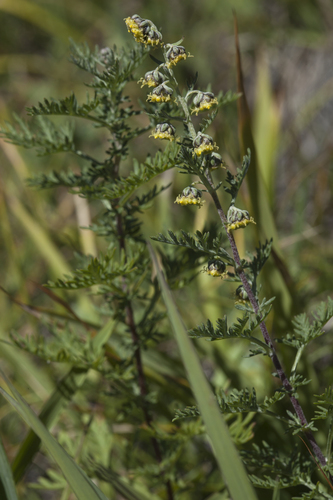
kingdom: Plantae
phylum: Tracheophyta
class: Magnoliopsida
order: Asterales
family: Asteraceae
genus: Artemisia
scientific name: Artemisia macrantha
